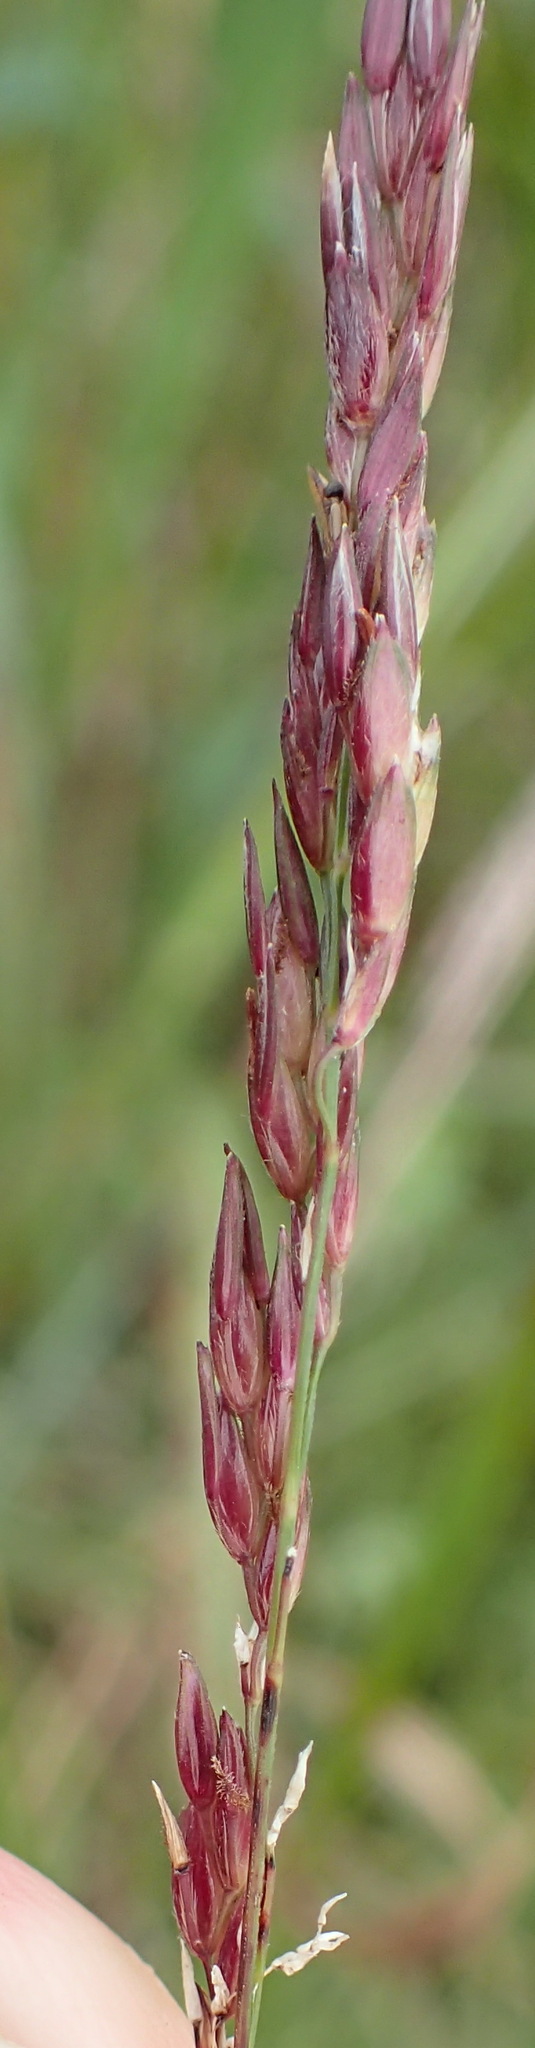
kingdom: Plantae
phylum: Tracheophyta
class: Liliopsida
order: Poales
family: Poaceae
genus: Sorghum
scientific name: Sorghum halepense
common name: Johnson-grass
